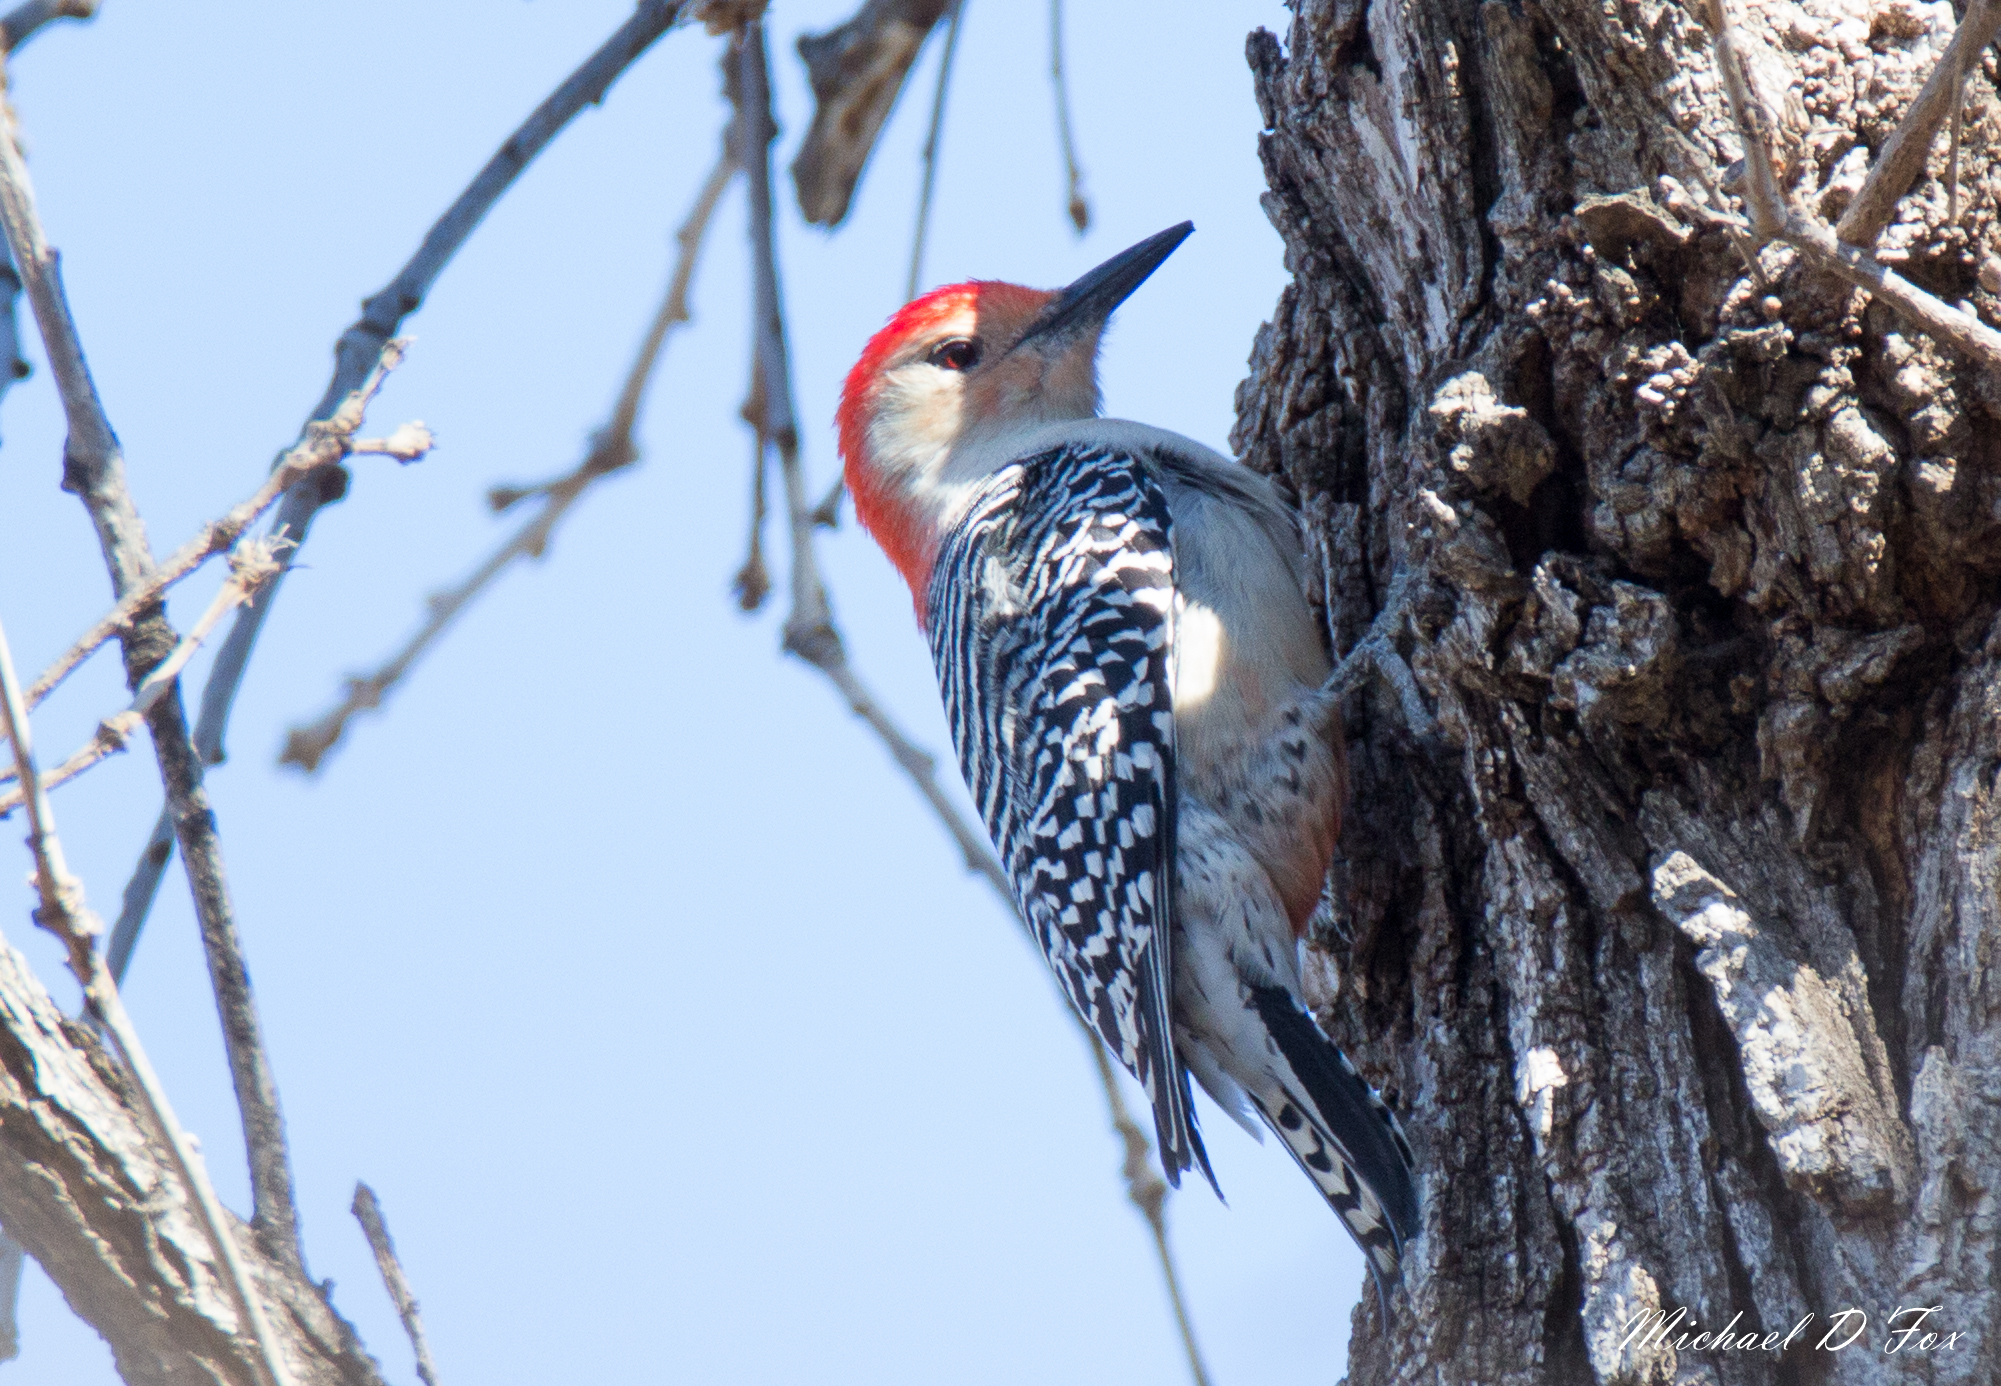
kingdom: Animalia
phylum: Chordata
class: Aves
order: Piciformes
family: Picidae
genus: Melanerpes
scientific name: Melanerpes carolinus
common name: Red-bellied woodpecker
